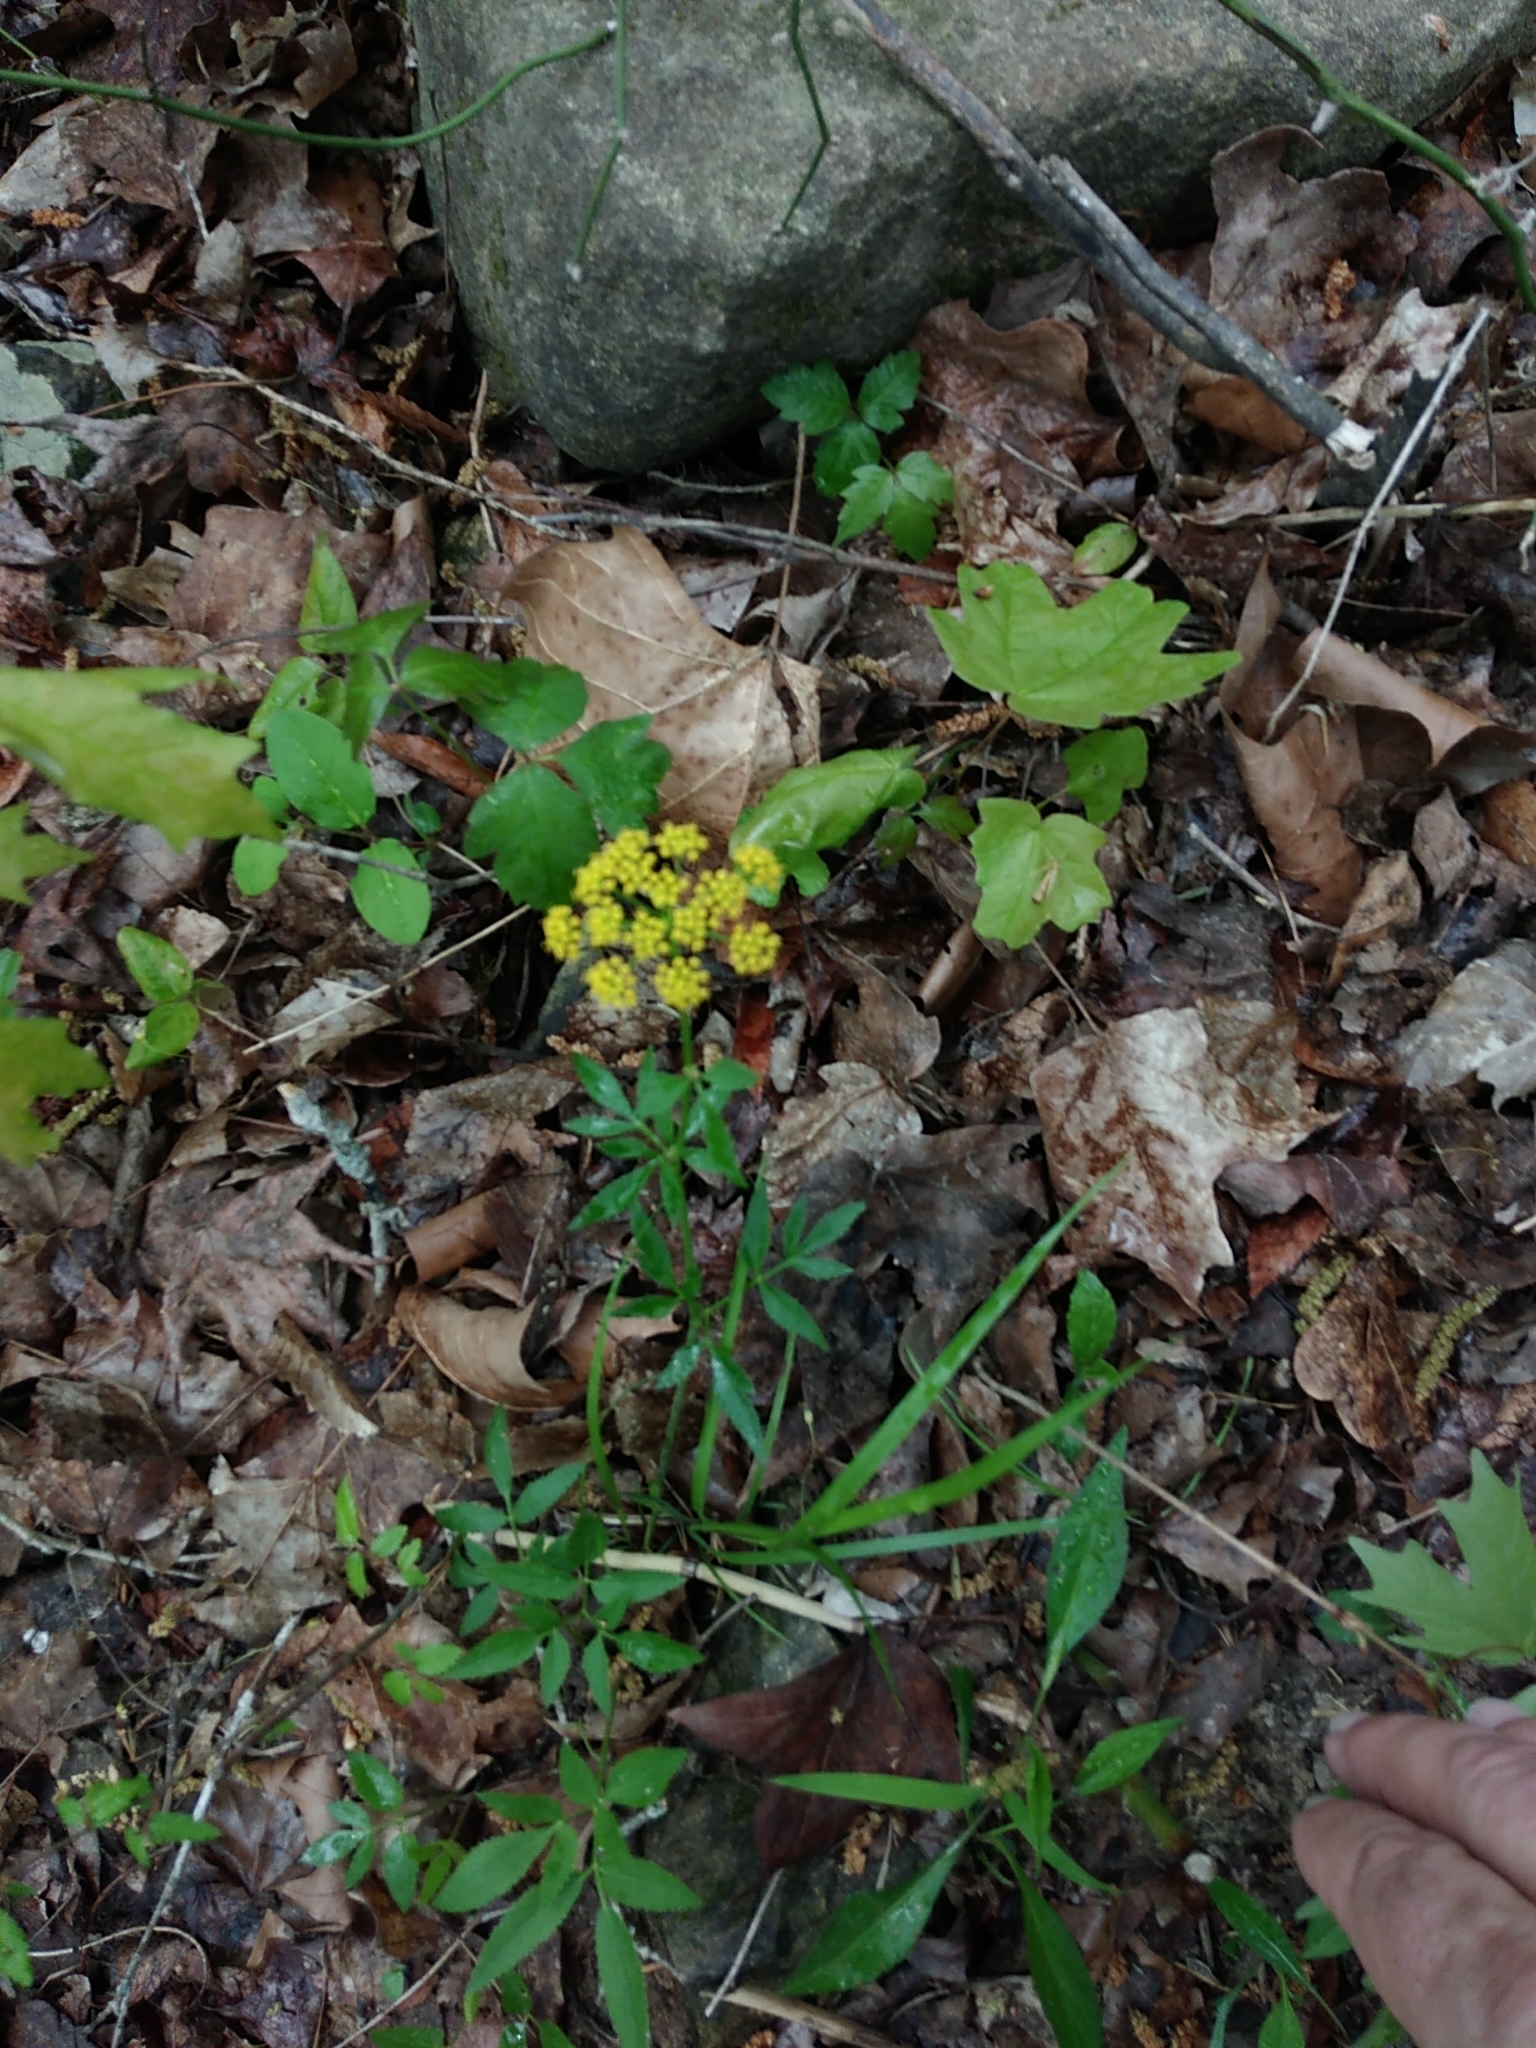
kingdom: Plantae
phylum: Tracheophyta
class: Magnoliopsida
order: Apiales
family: Apiaceae
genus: Zizia
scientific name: Zizia aurea
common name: Golden alexanders
